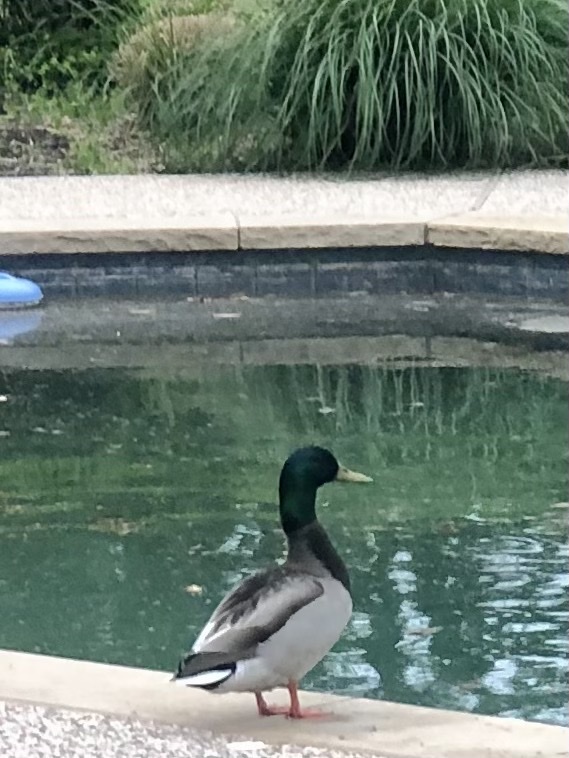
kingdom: Animalia
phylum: Chordata
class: Aves
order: Anseriformes
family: Anatidae
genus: Anas
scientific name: Anas platyrhynchos
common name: Mallard
